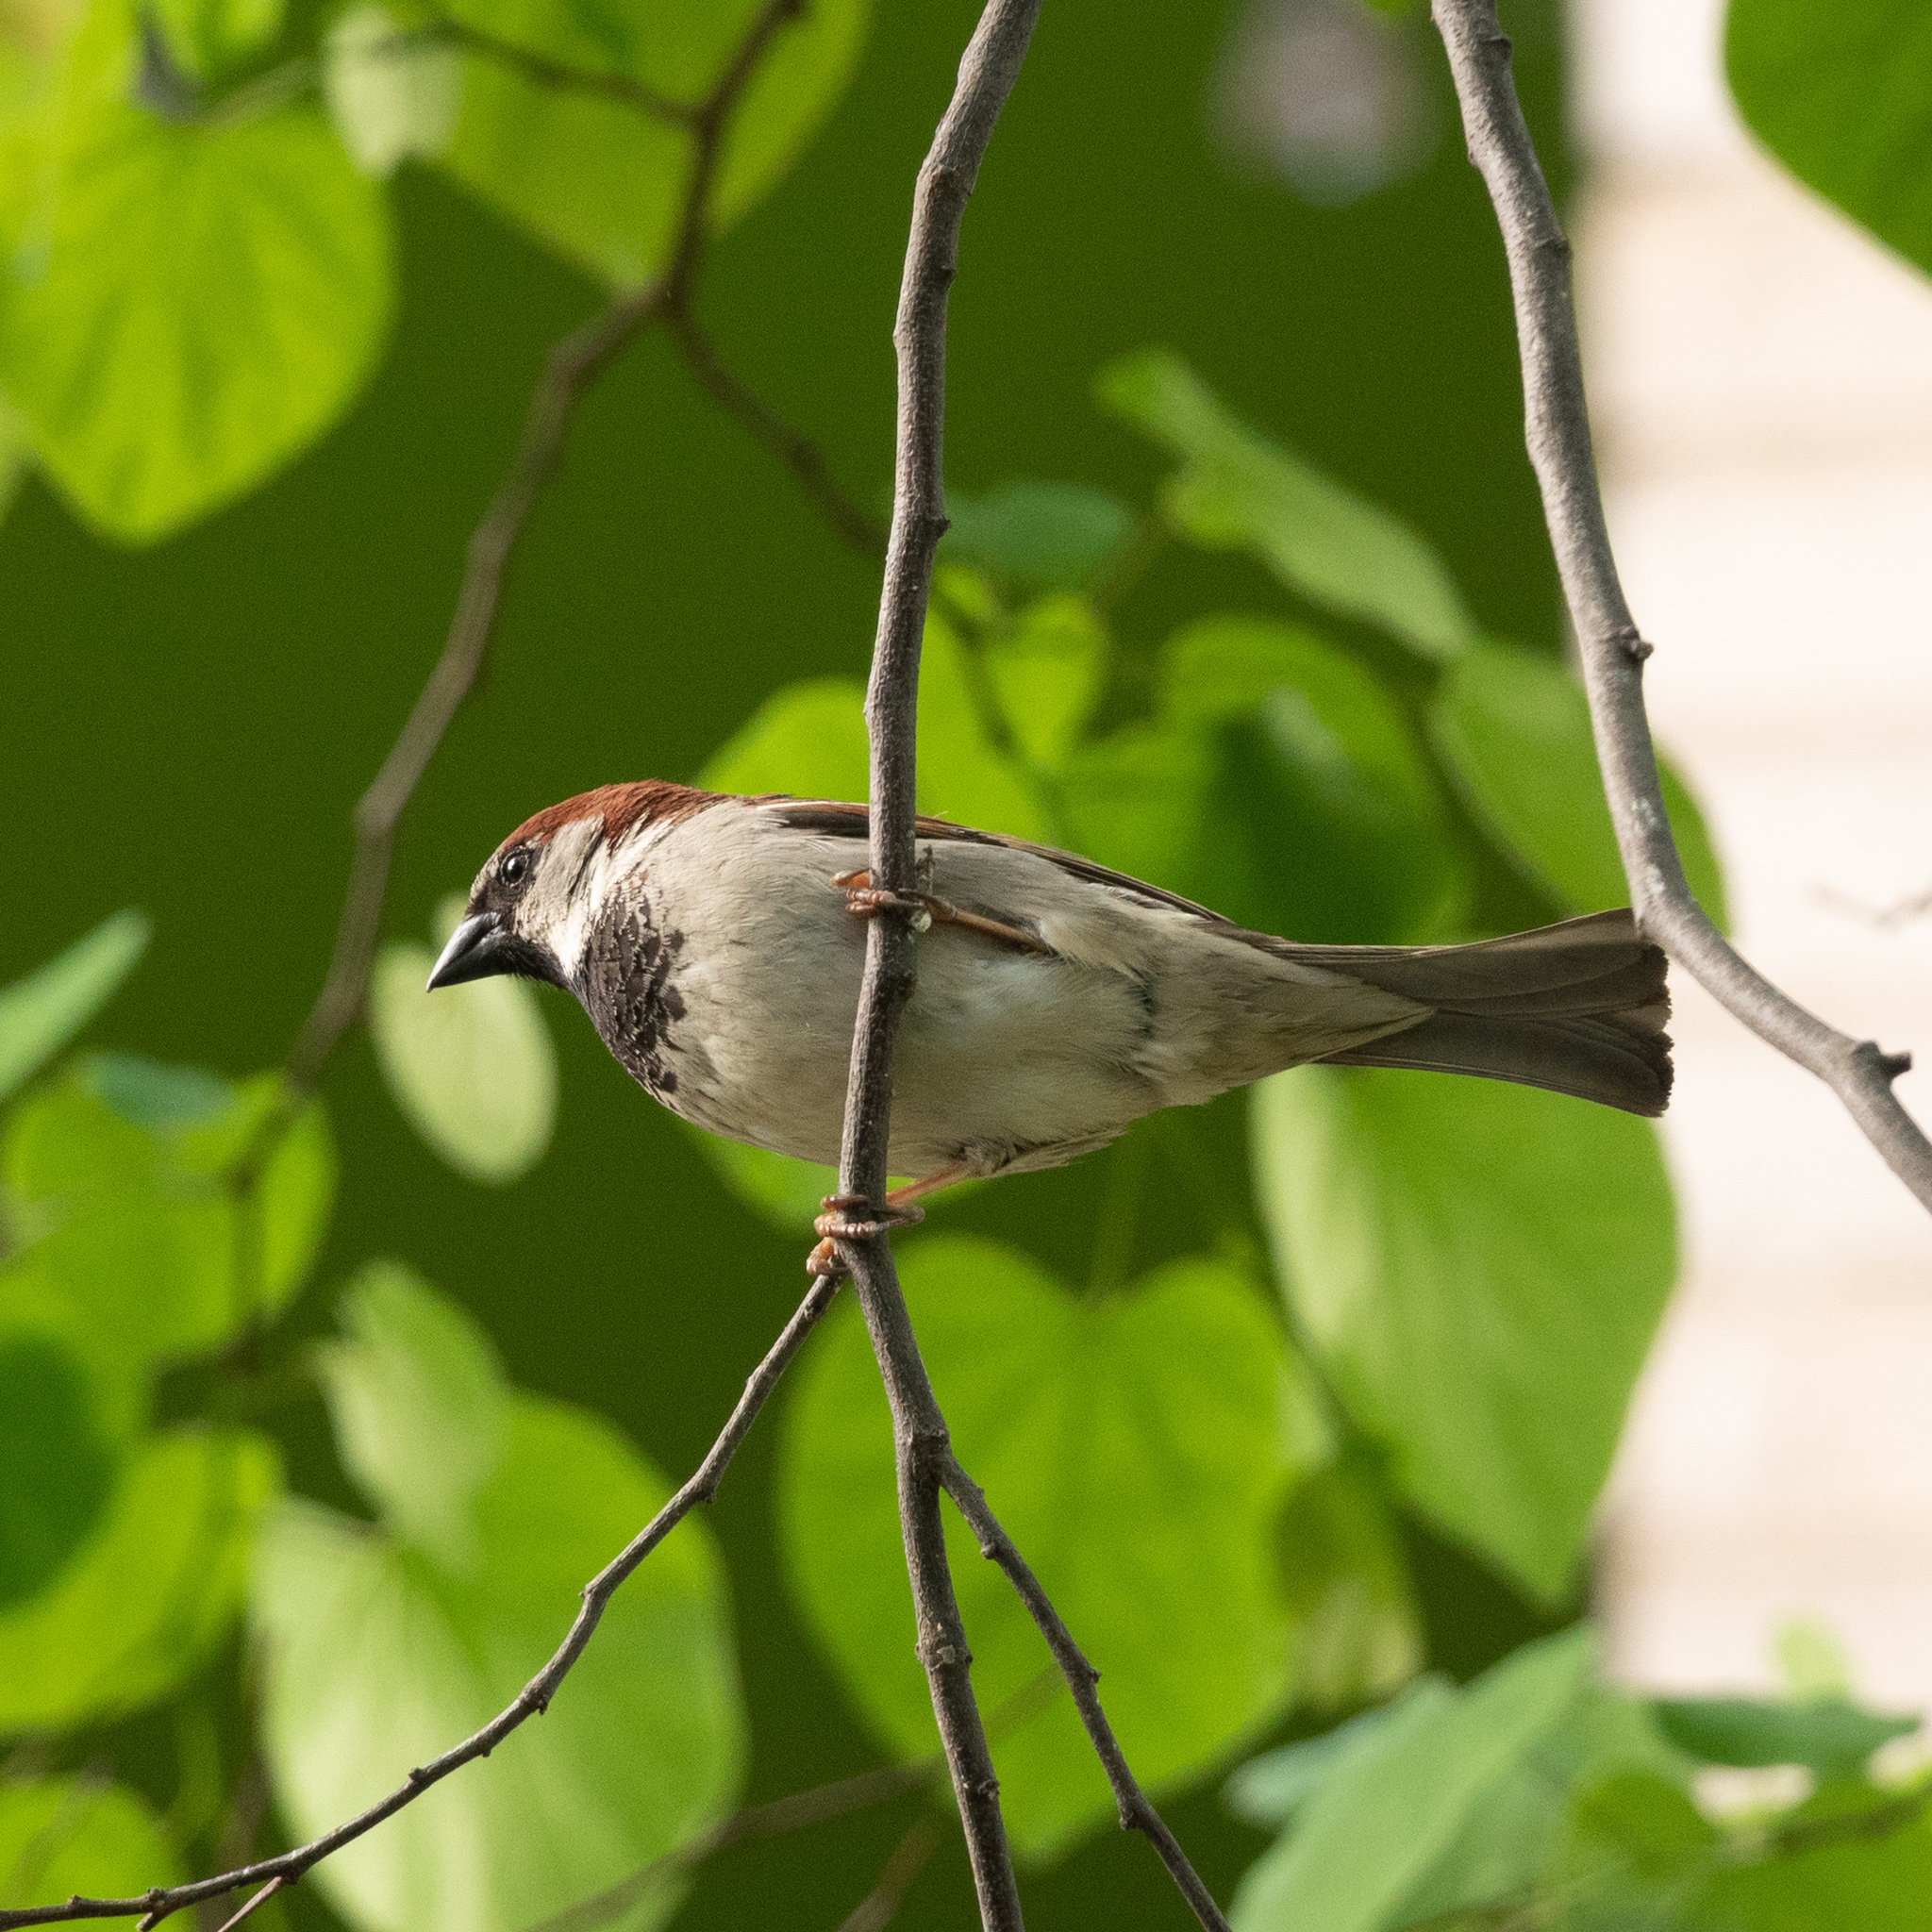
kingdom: Animalia
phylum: Chordata
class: Aves
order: Passeriformes
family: Passeridae
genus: Passer
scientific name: Passer domesticus
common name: House sparrow
